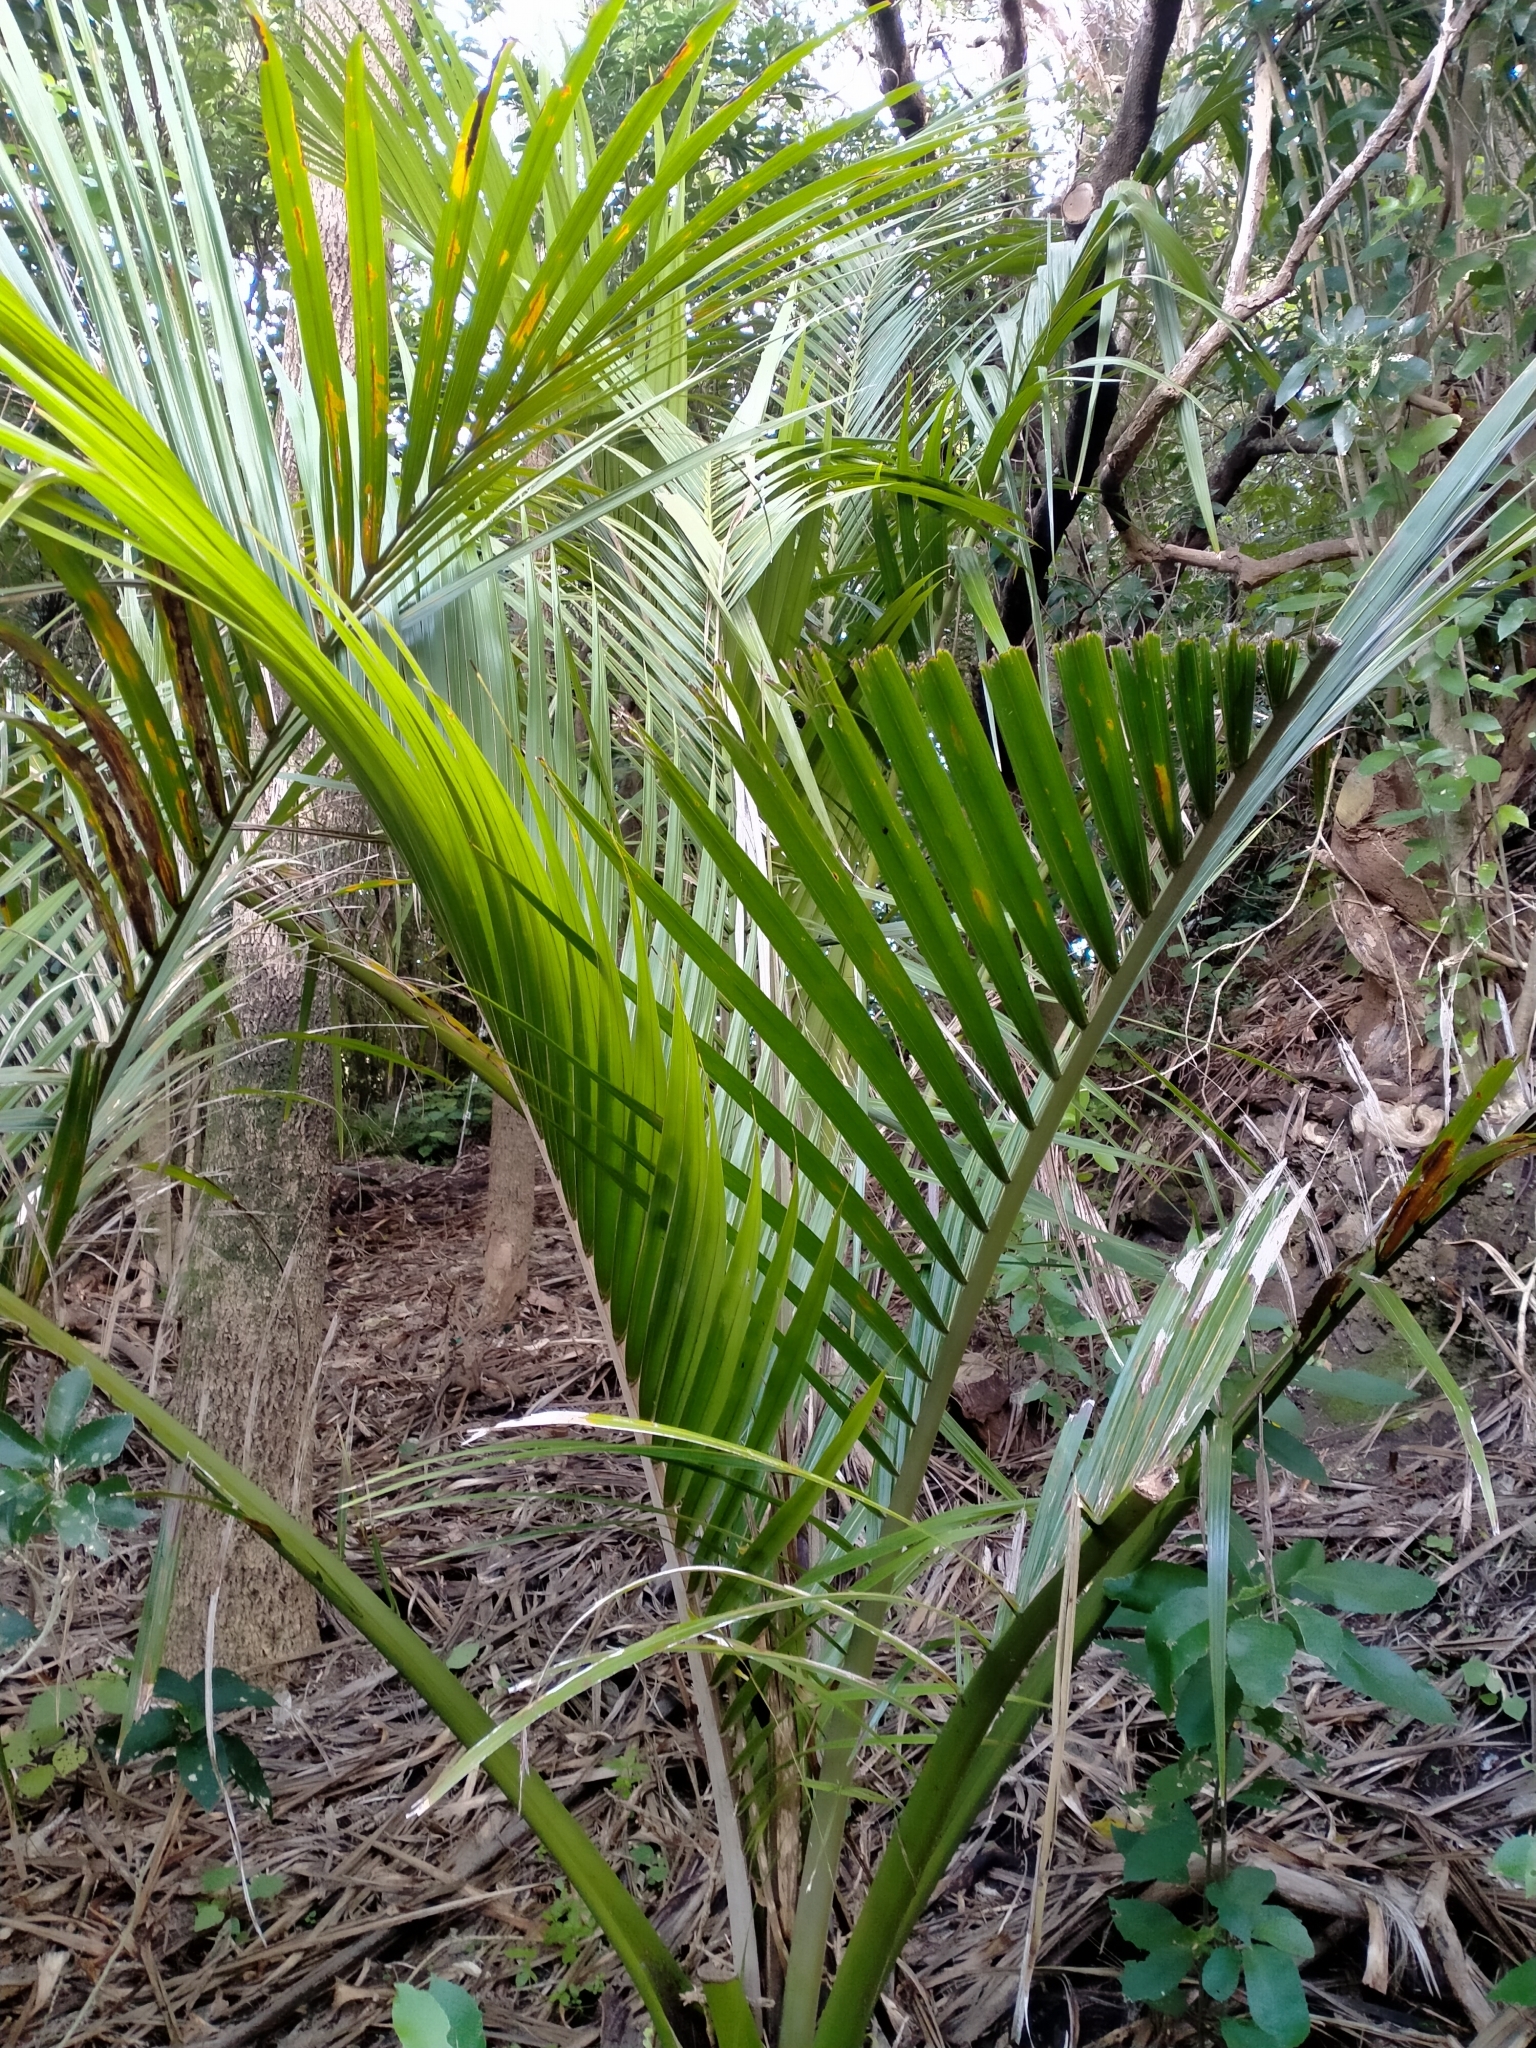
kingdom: Plantae
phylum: Tracheophyta
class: Liliopsida
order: Arecales
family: Arecaceae
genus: Rhopalostylis
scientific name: Rhopalostylis sapida
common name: Feather-duster palm
